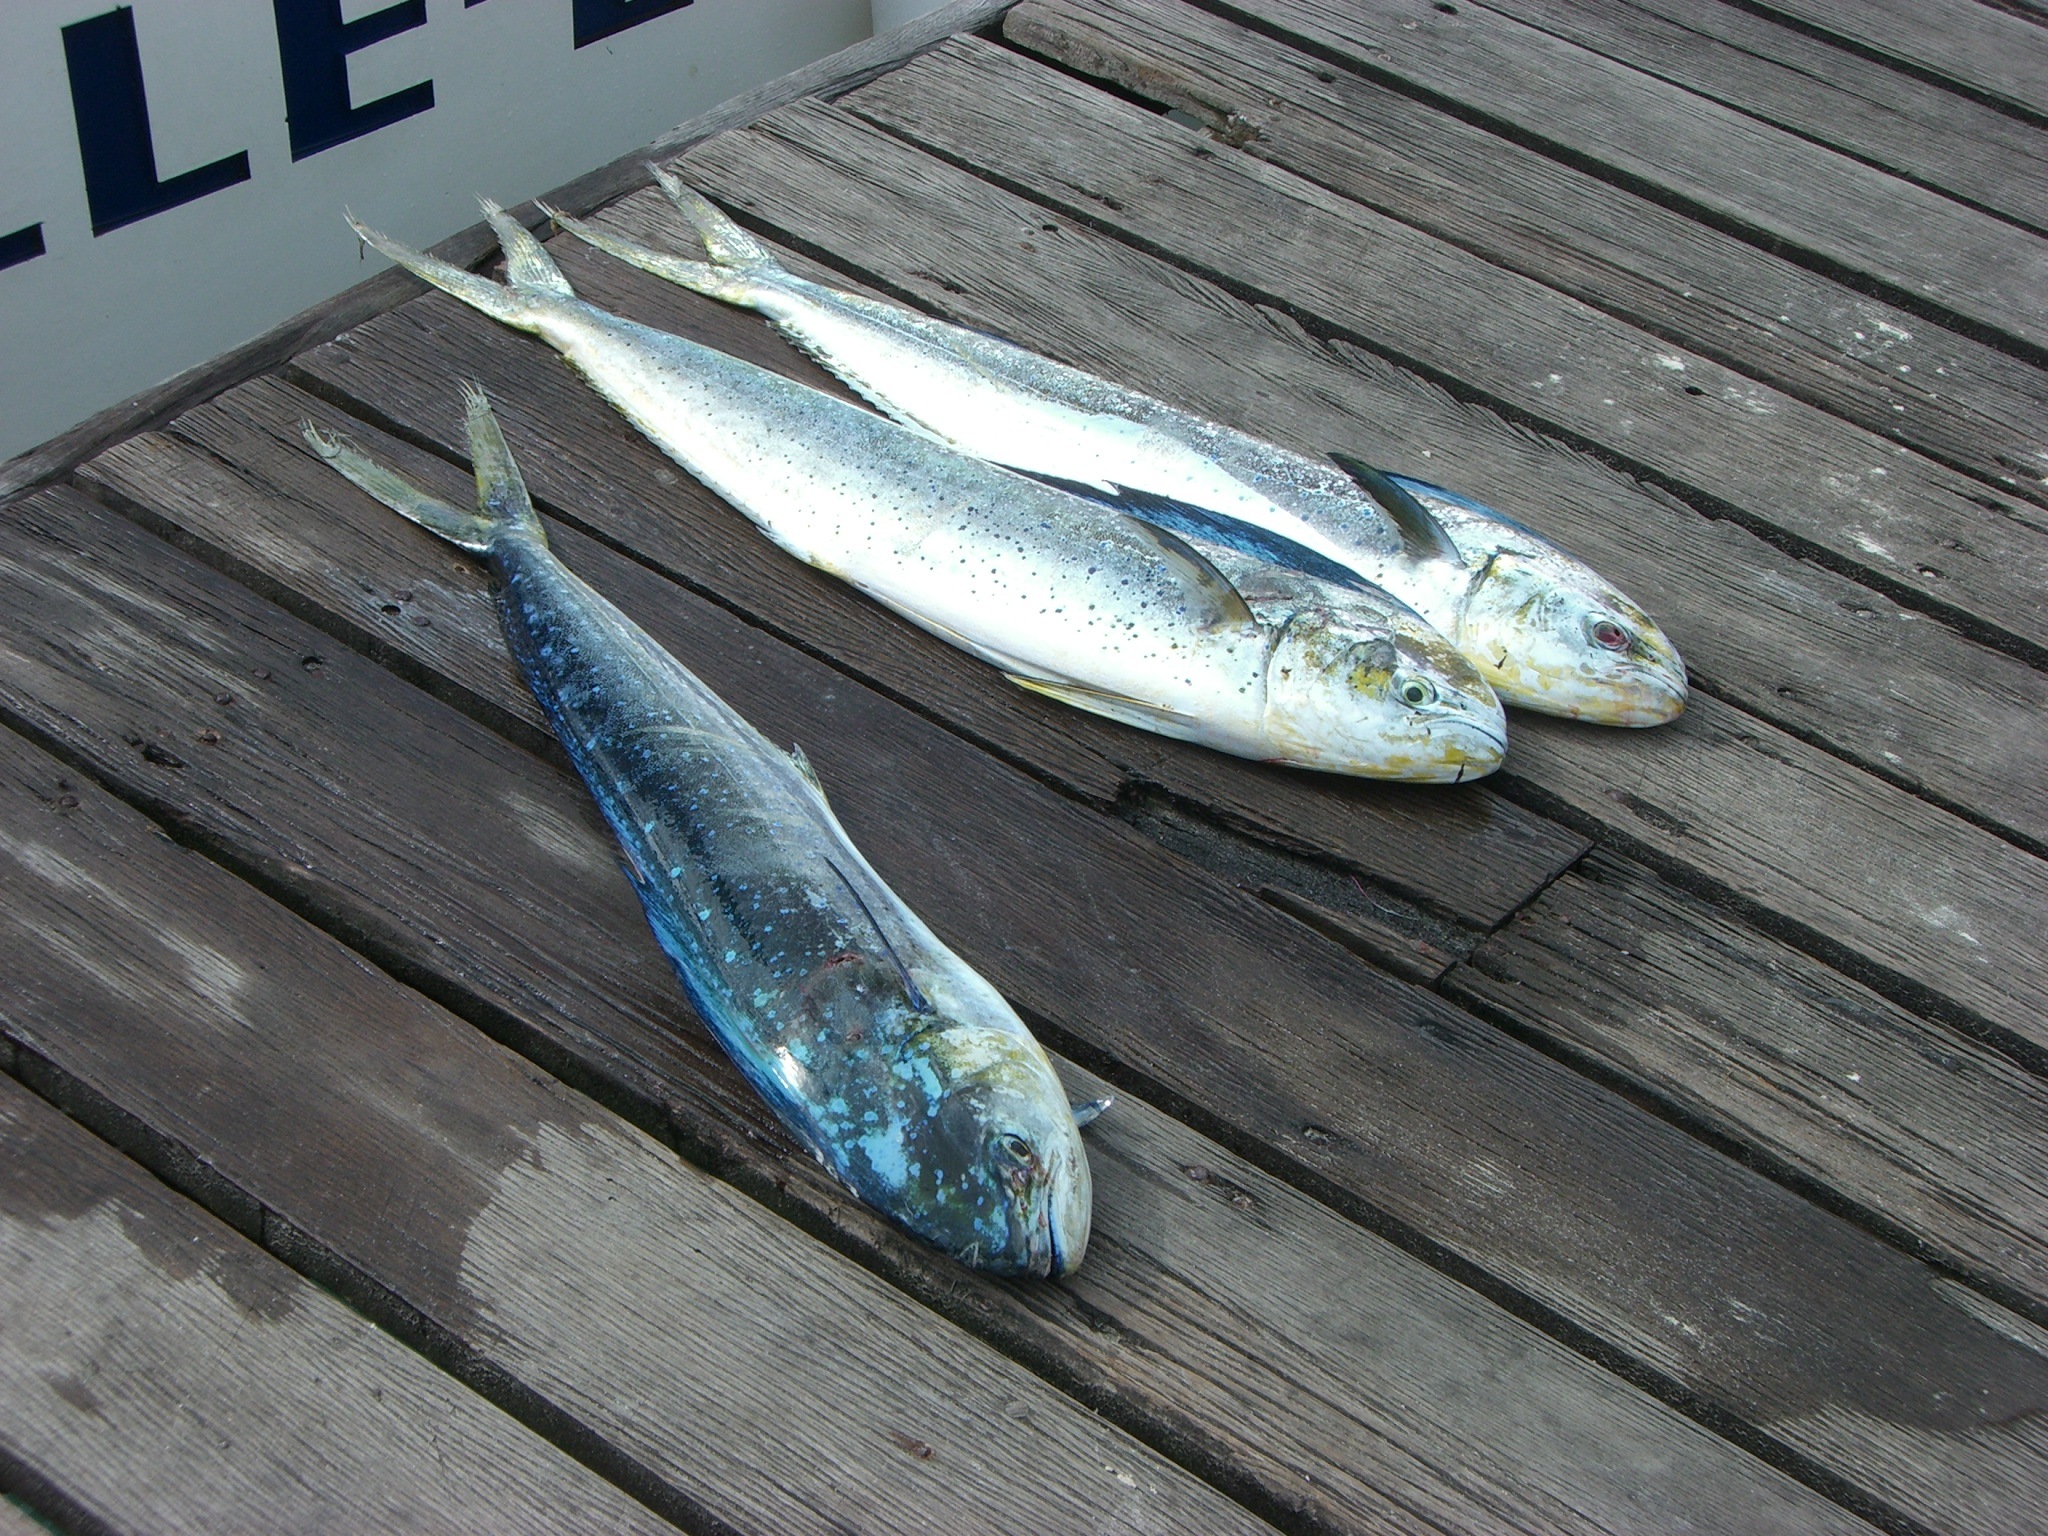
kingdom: Animalia
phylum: Chordata
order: Perciformes
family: Coryphaenidae
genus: Coryphaena
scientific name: Coryphaena hippurus
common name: Dolphin
